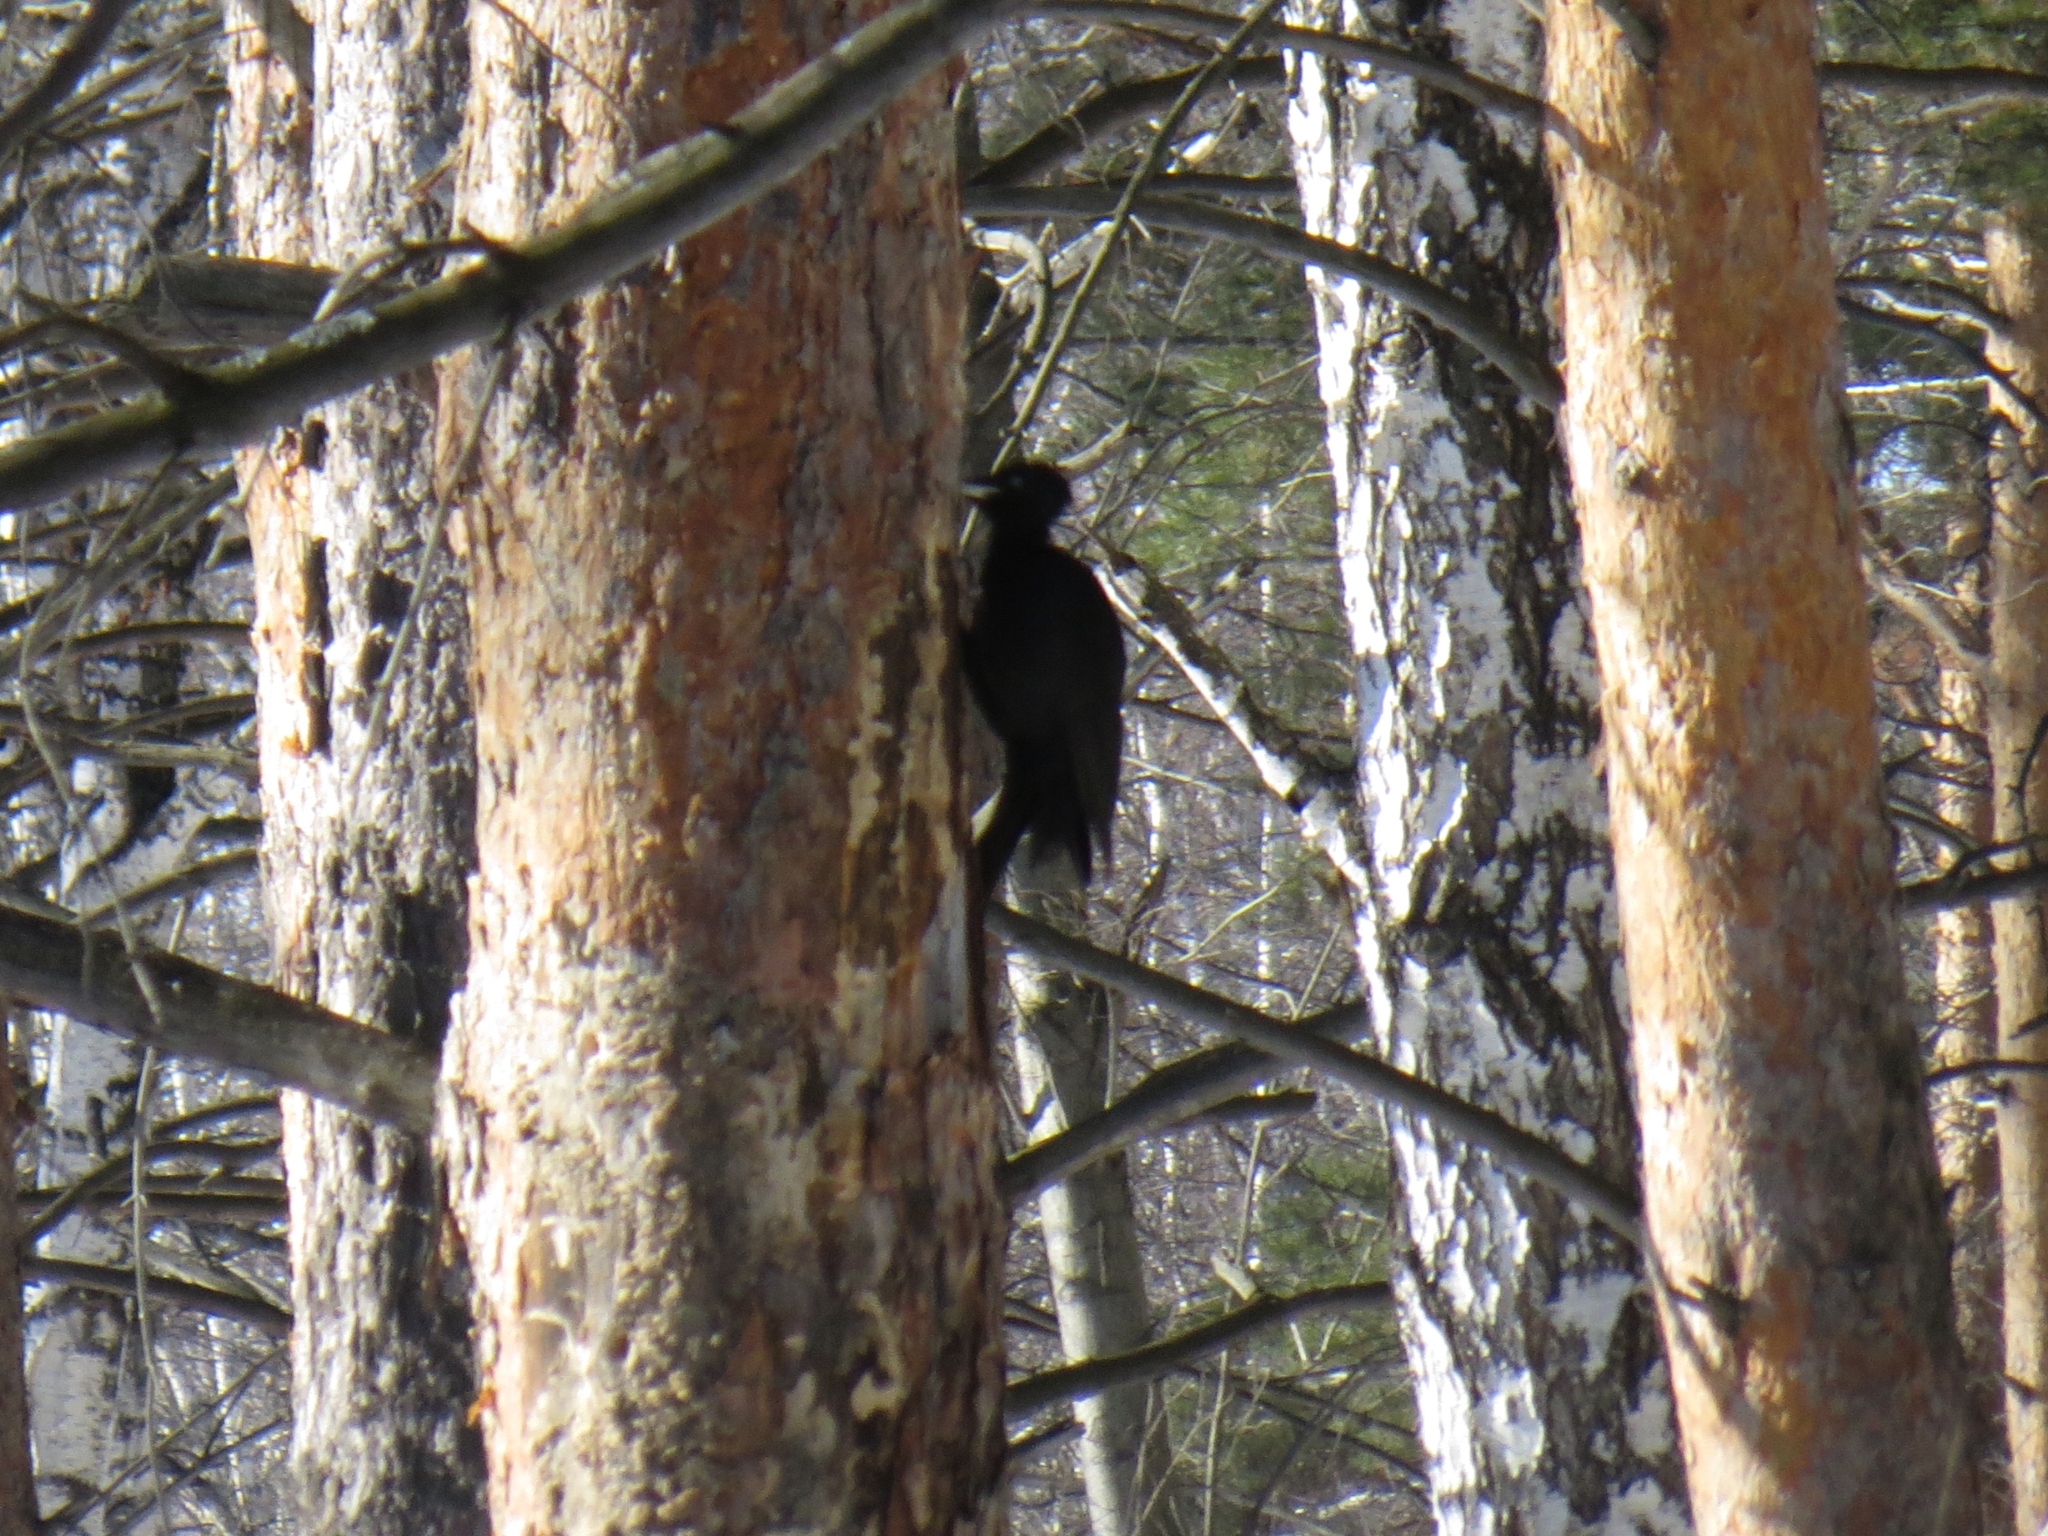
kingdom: Animalia
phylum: Chordata
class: Aves
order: Piciformes
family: Picidae
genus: Dryocopus
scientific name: Dryocopus martius
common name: Black woodpecker
